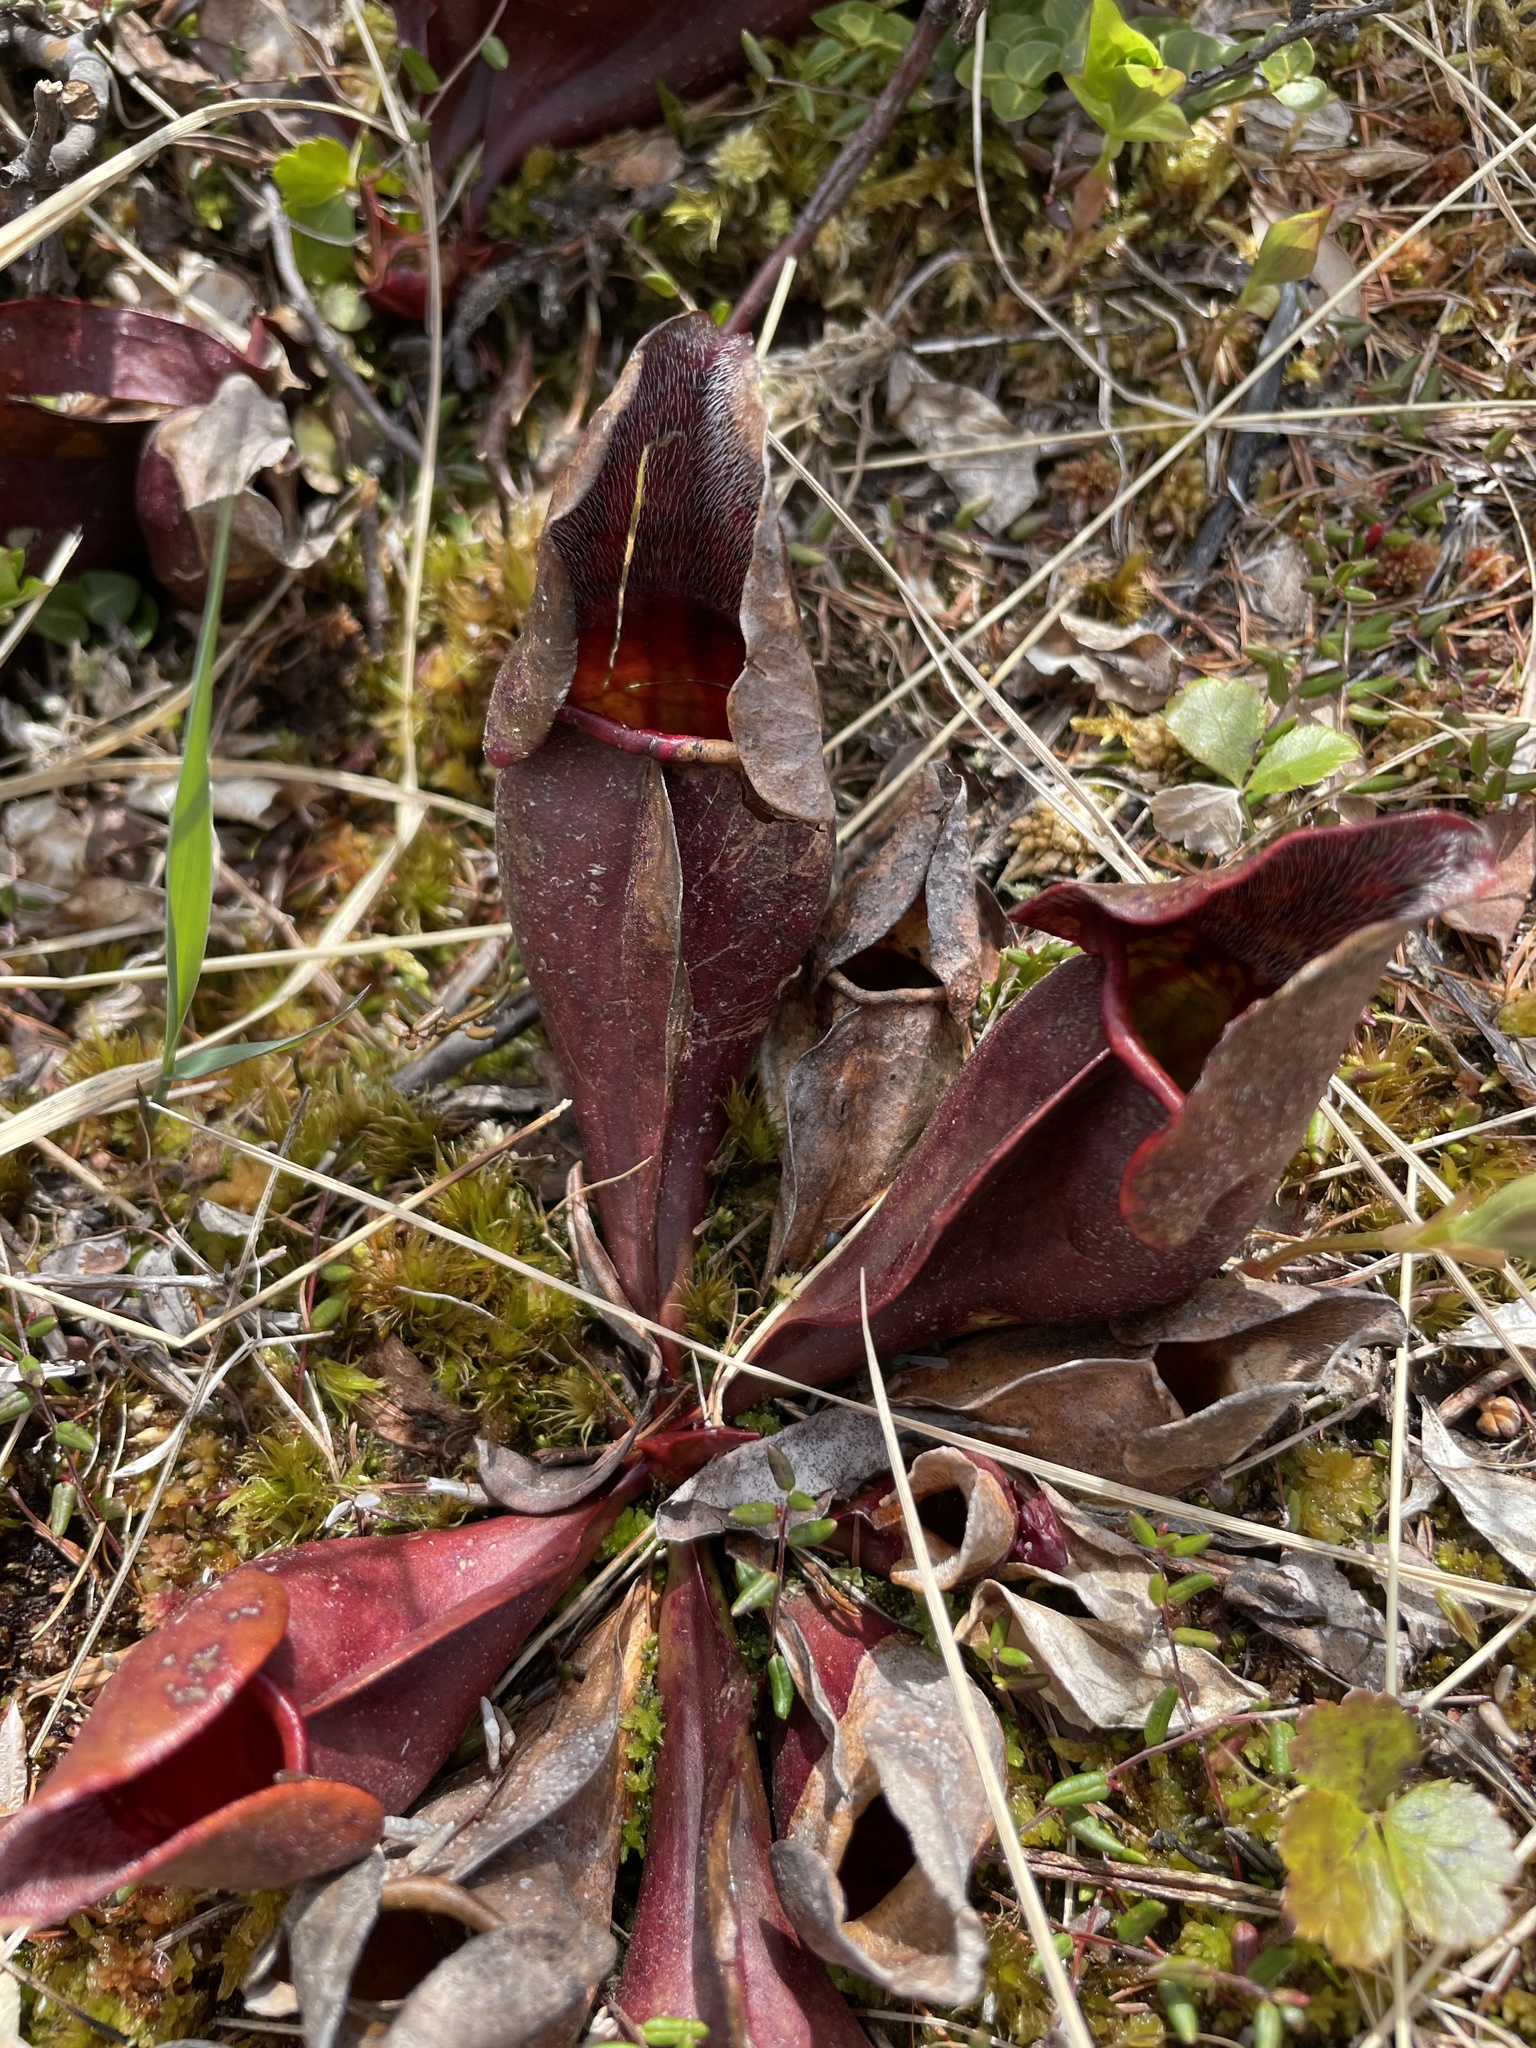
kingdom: Plantae
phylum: Tracheophyta
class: Magnoliopsida
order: Ericales
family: Sarraceniaceae
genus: Sarracenia
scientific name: Sarracenia purpurea
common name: Pitcherplant
